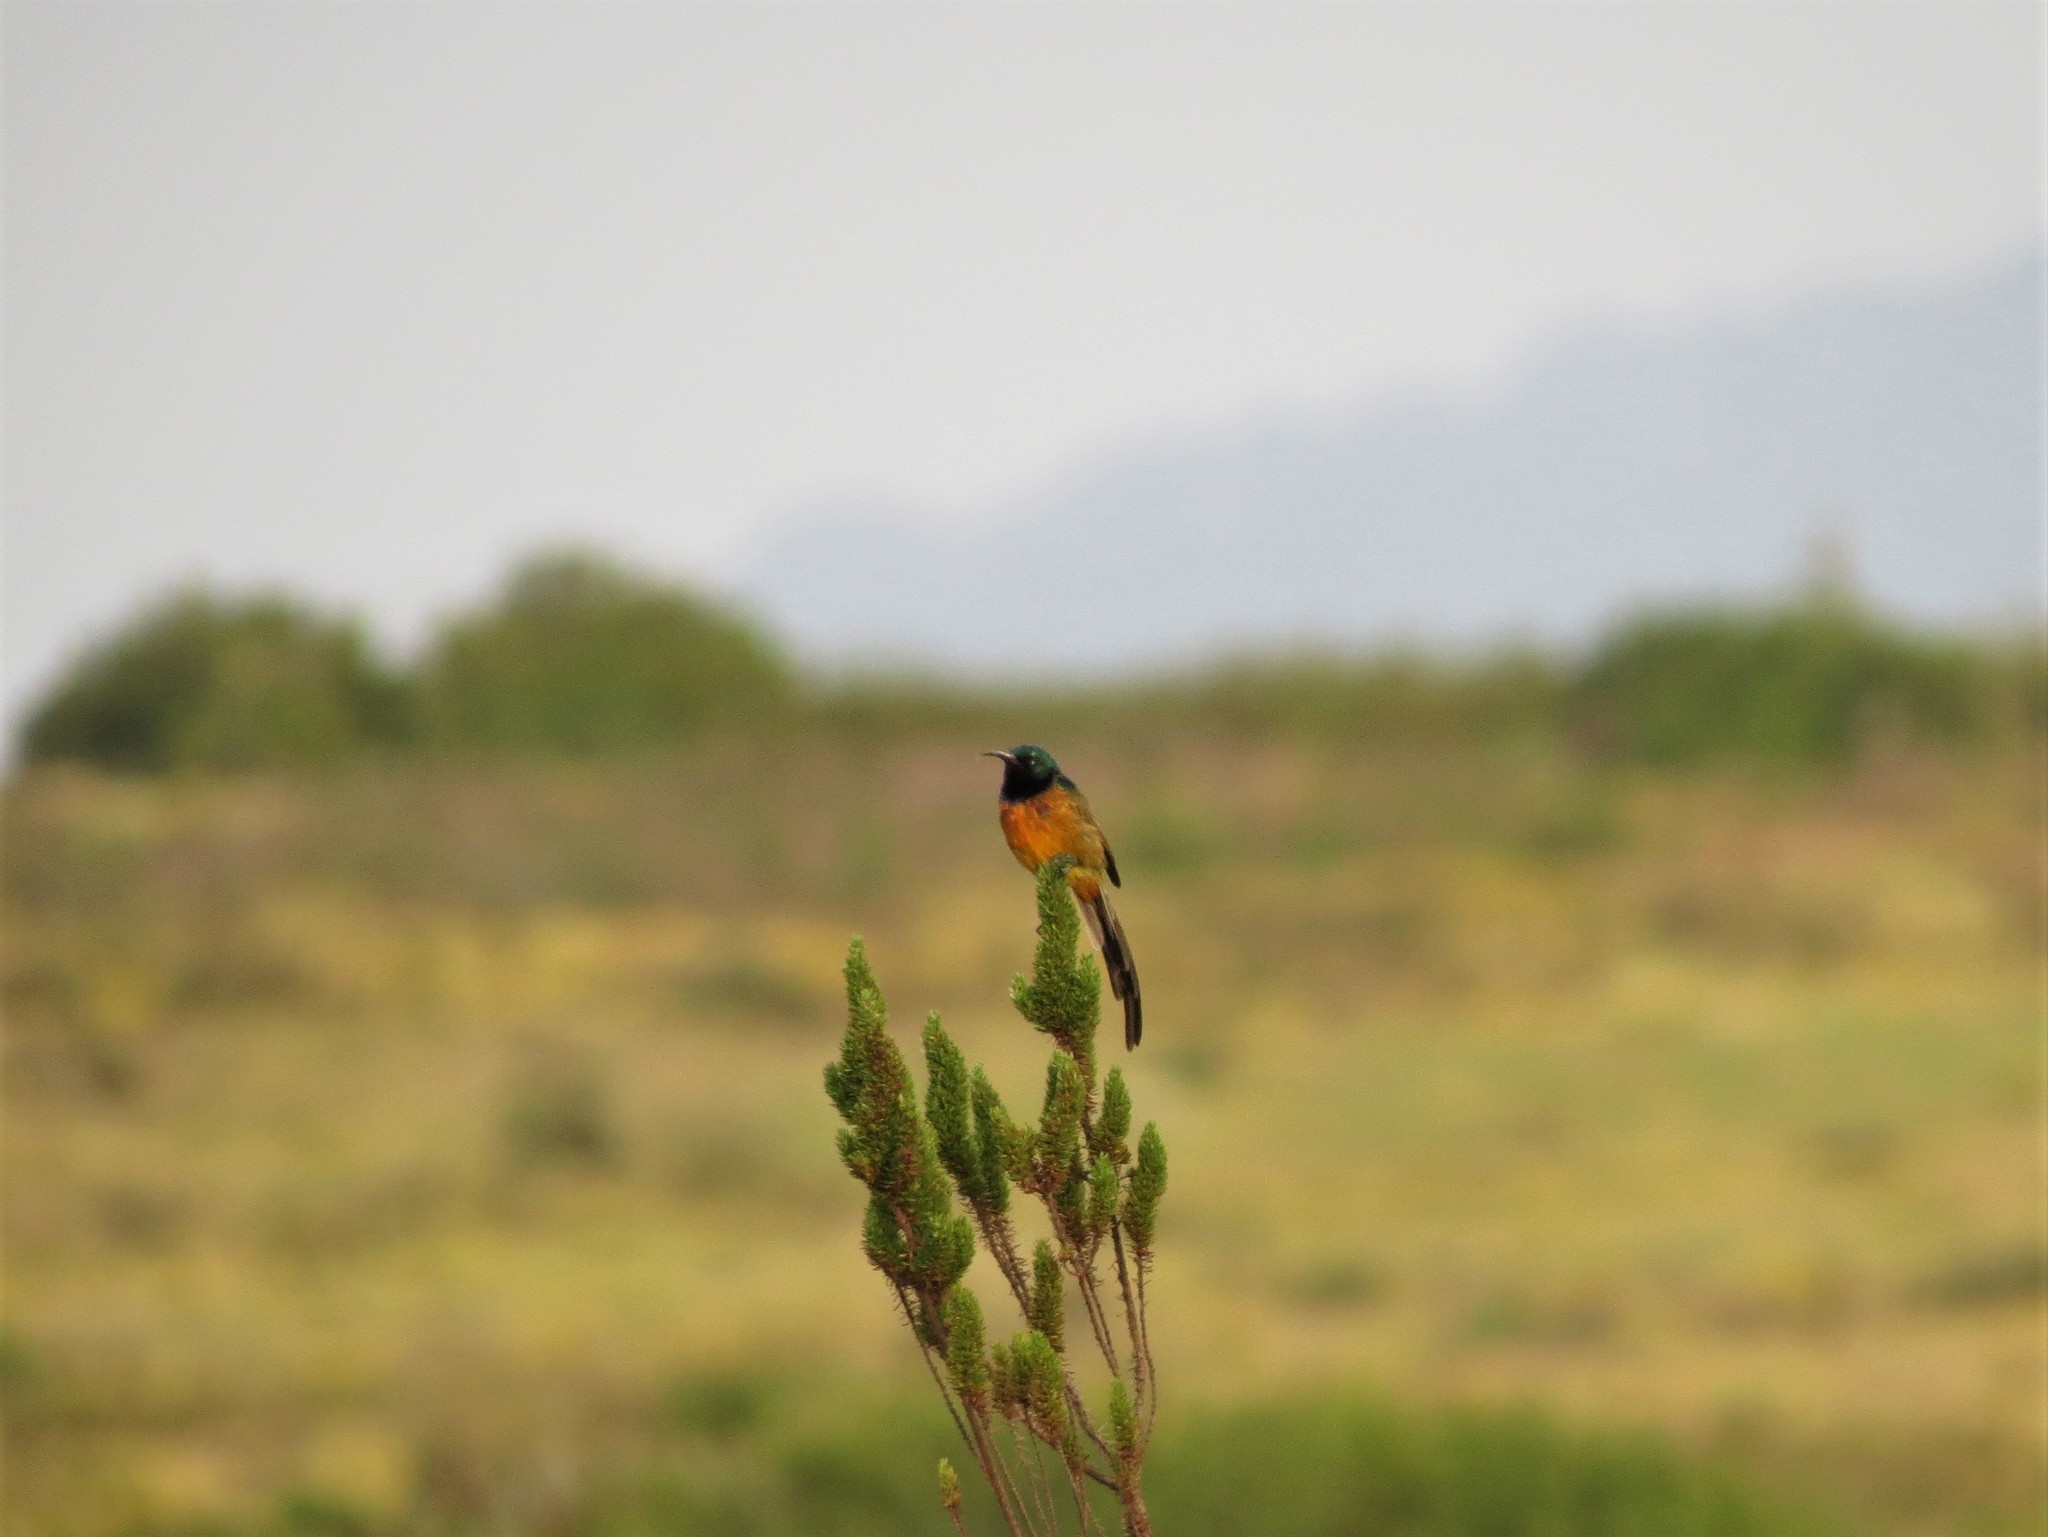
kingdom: Animalia
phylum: Chordata
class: Aves
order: Passeriformes
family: Nectariniidae
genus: Anthobaphes
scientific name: Anthobaphes violacea
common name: Orange-breasted sunbird
